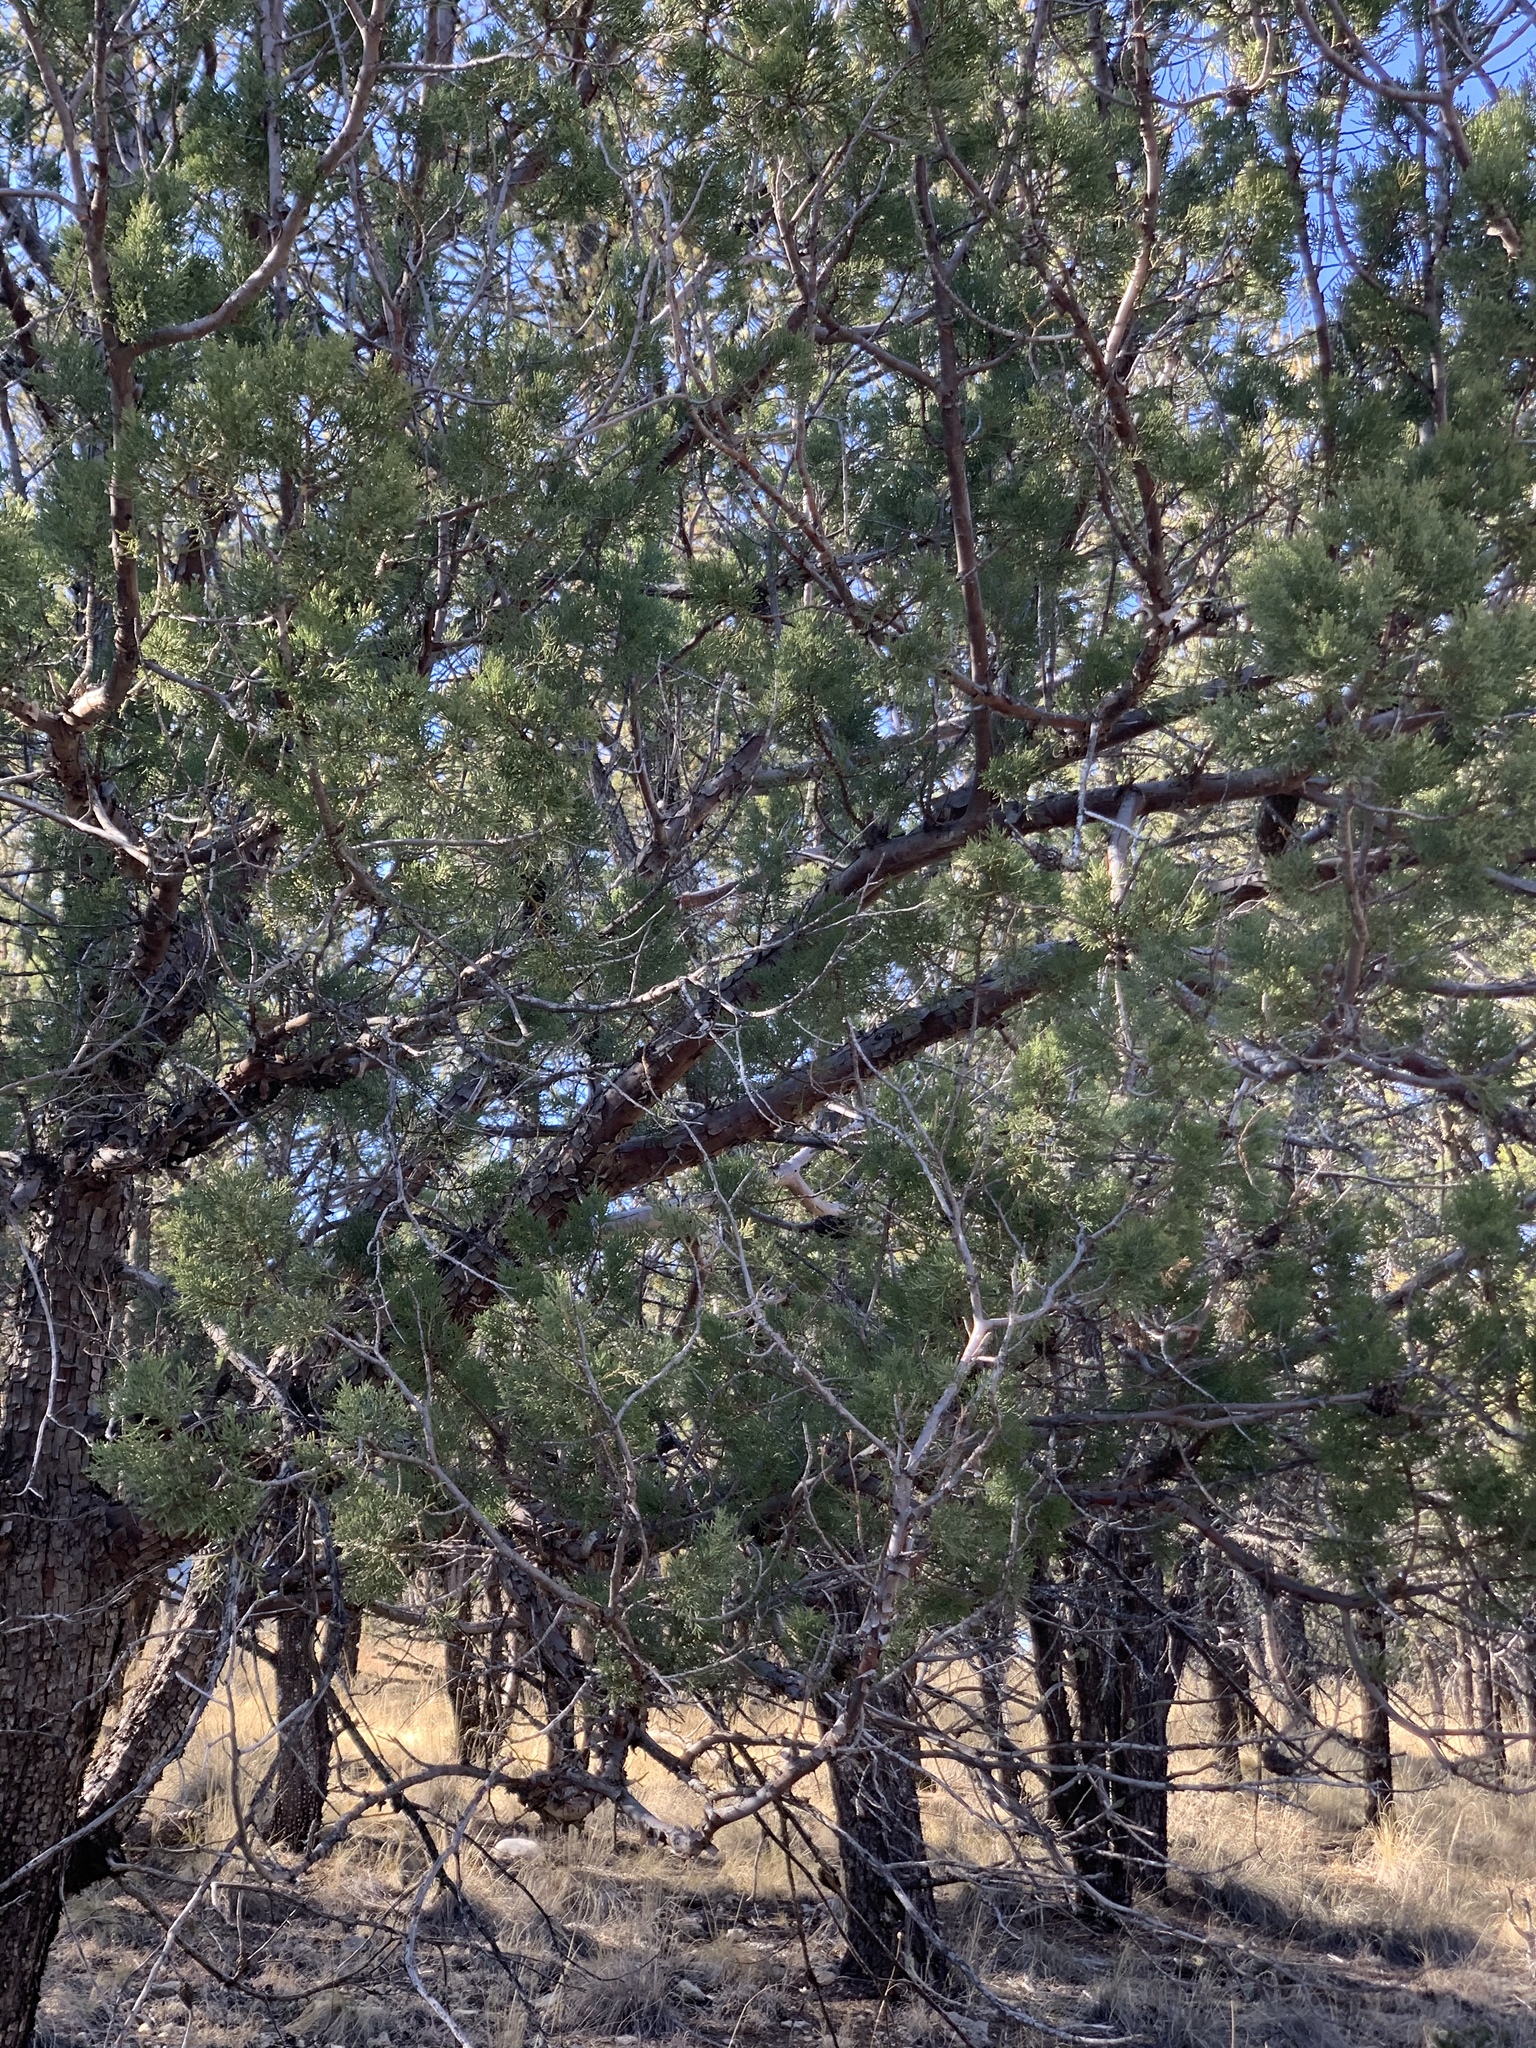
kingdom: Plantae
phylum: Tracheophyta
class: Pinopsida
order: Pinales
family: Cupressaceae
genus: Juniperus
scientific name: Juniperus deppeana
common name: Alligator juniper
